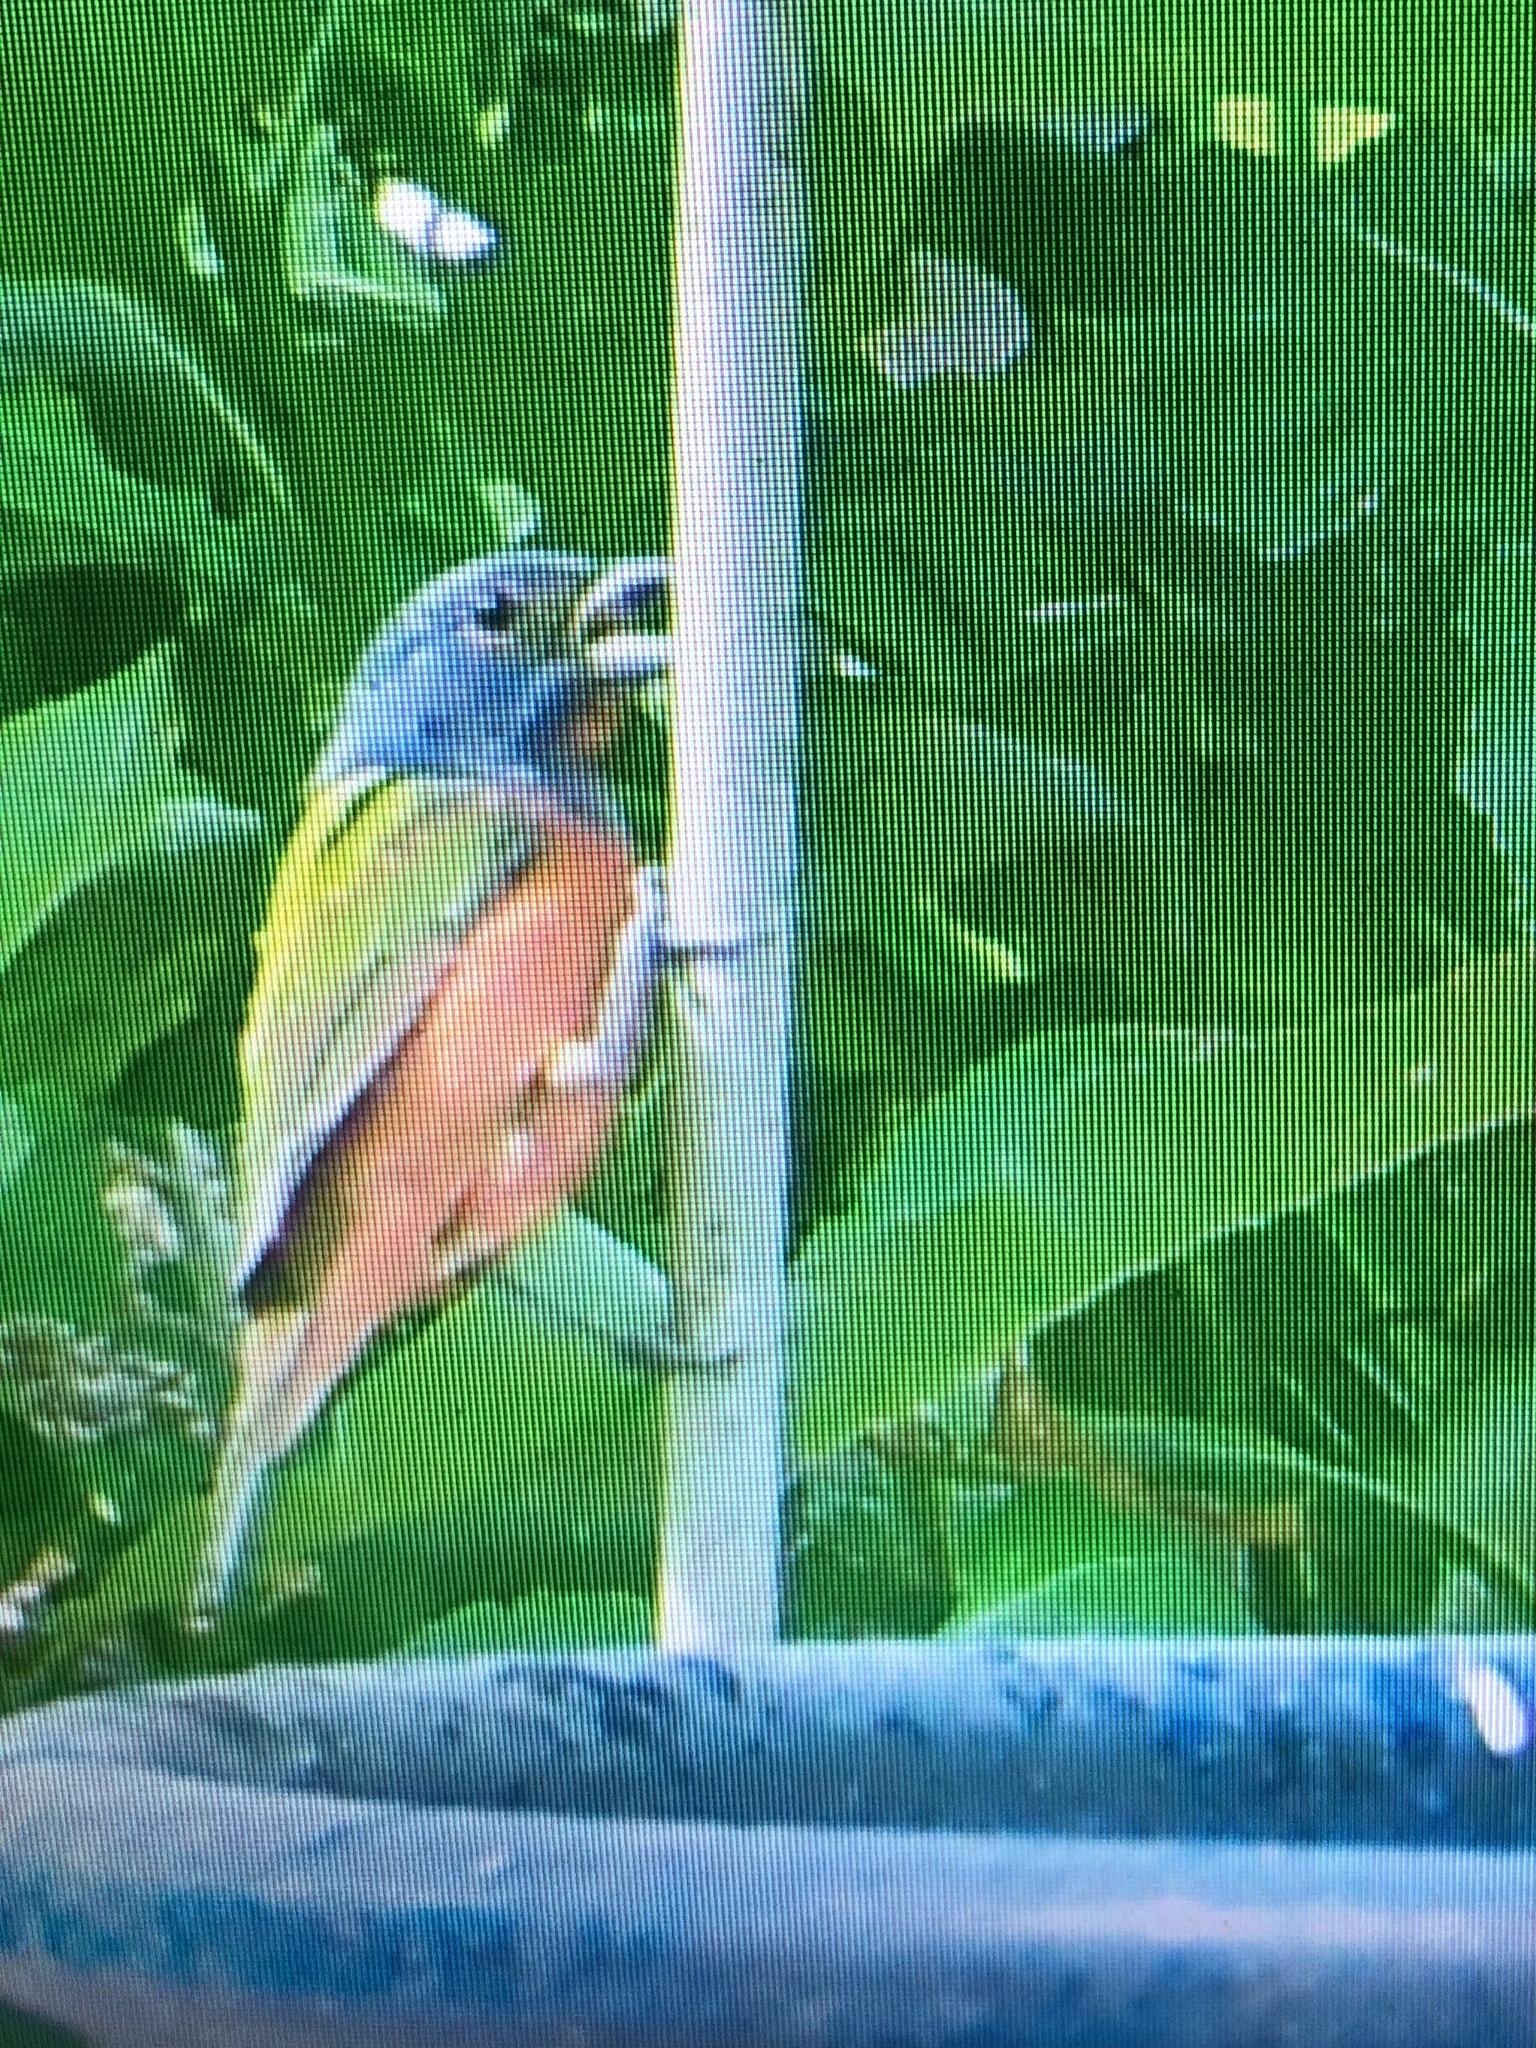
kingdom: Animalia
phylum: Chordata
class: Aves
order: Passeriformes
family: Cardinalidae
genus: Passerina
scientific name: Passerina ciris
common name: Painted bunting
